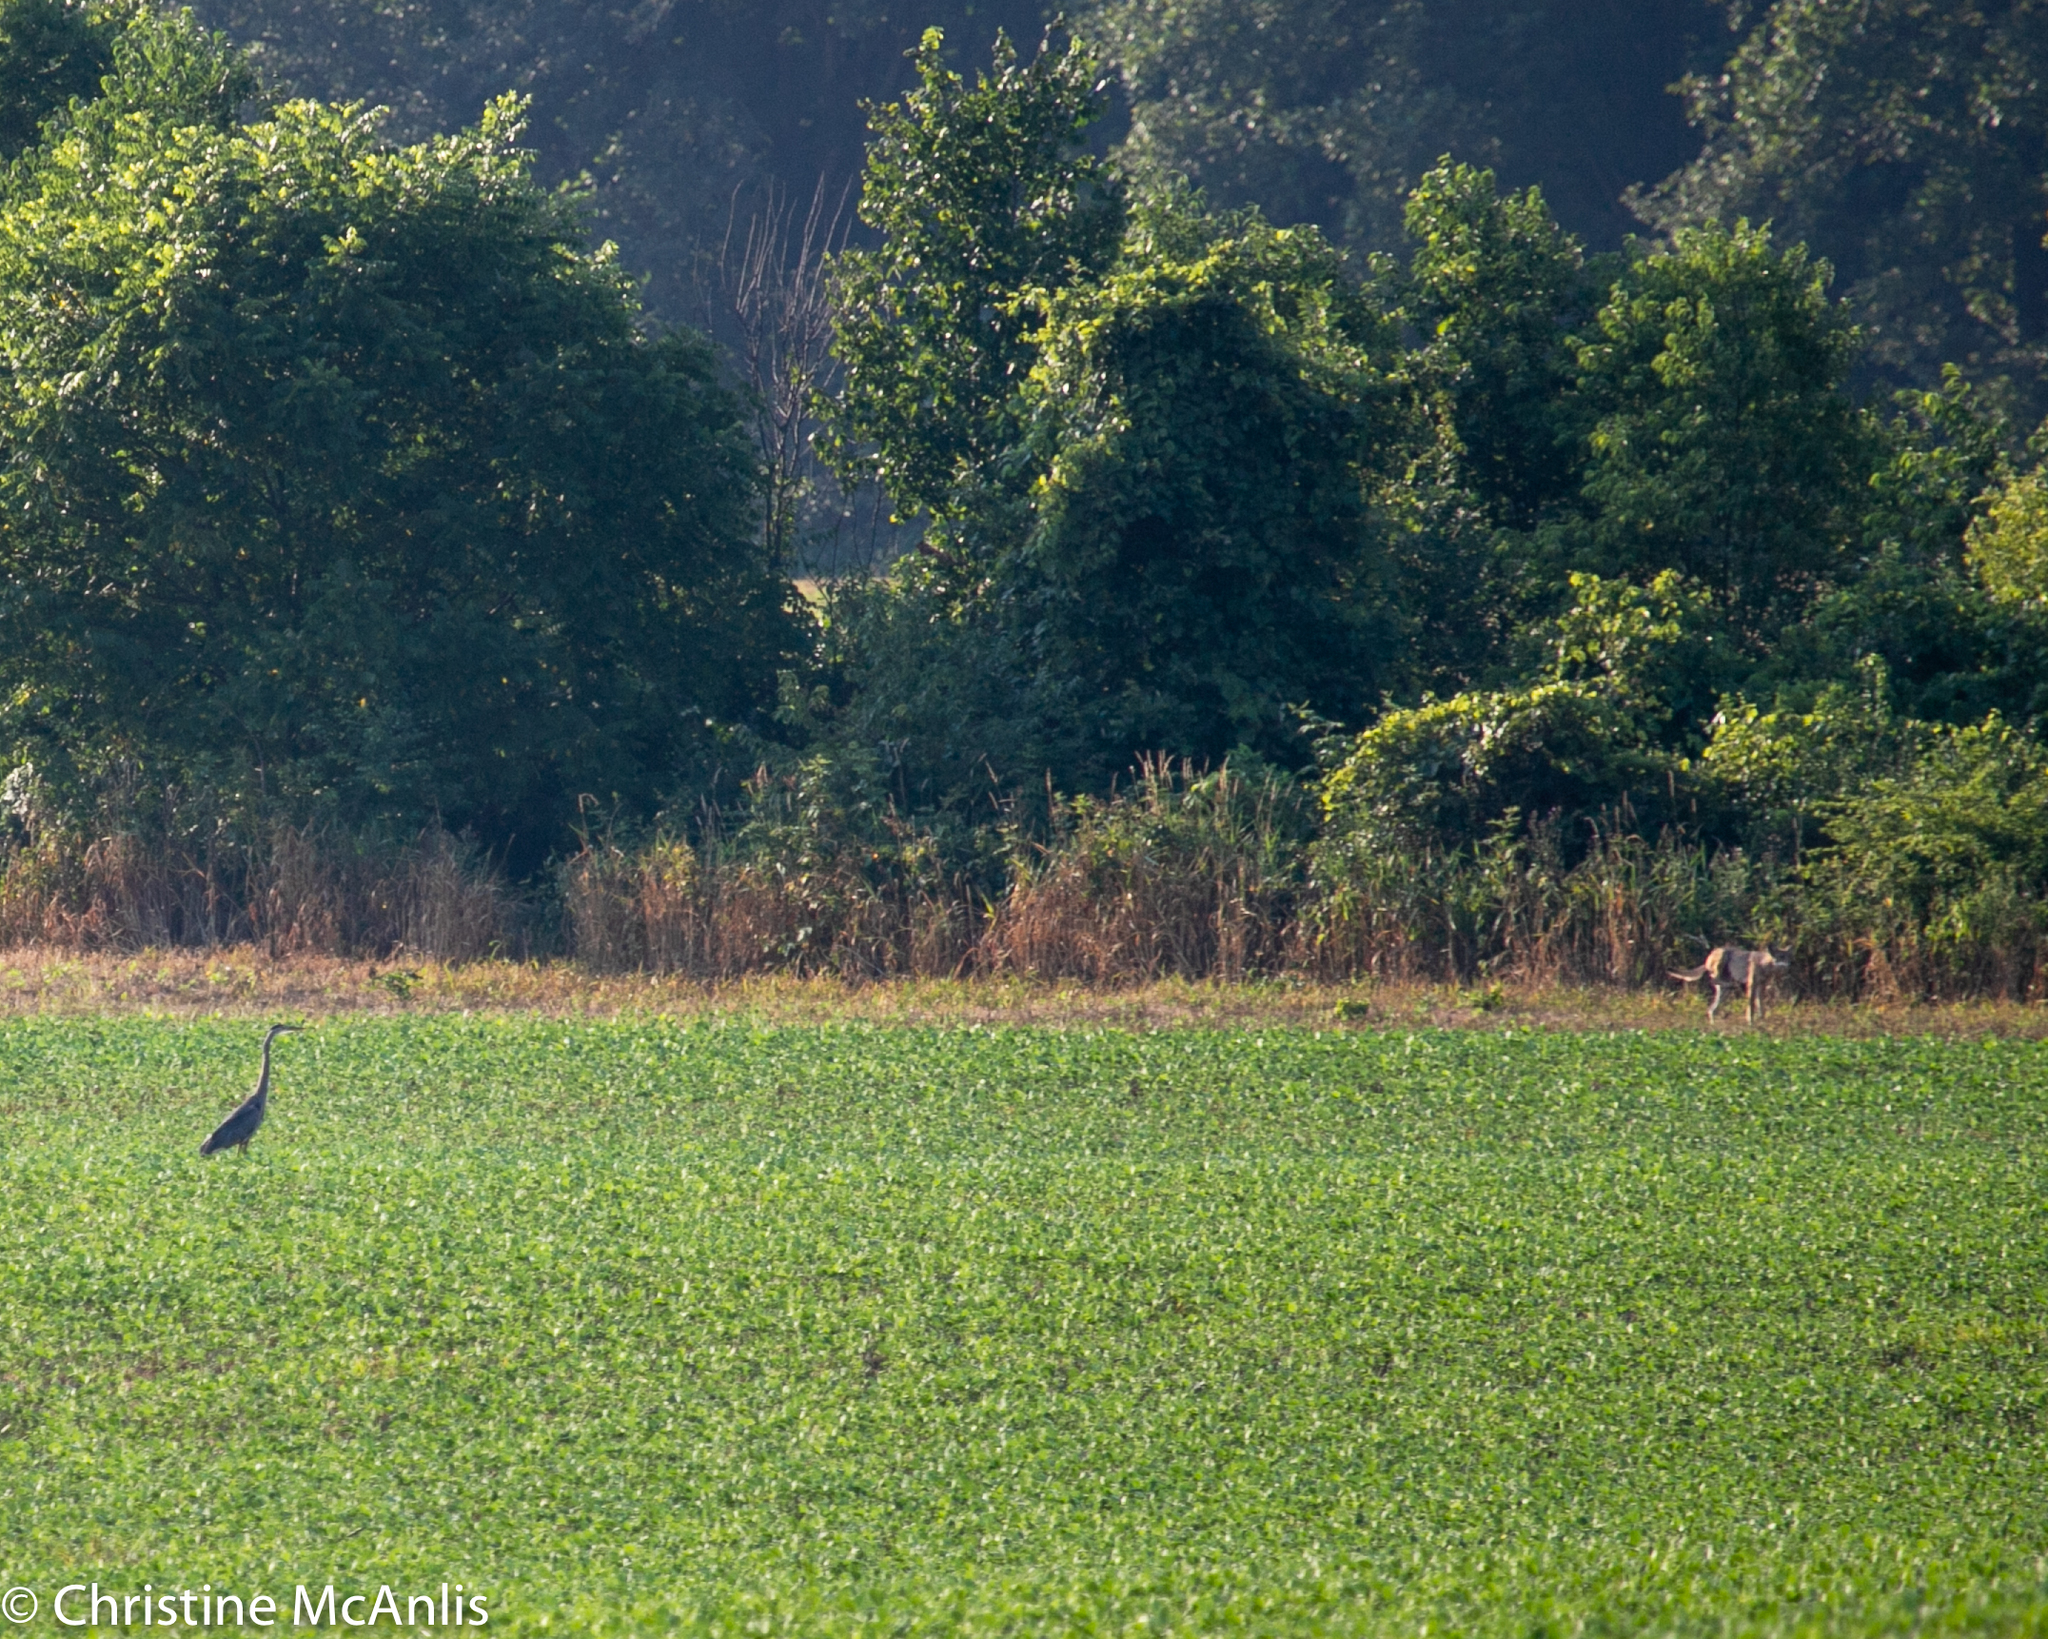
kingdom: Animalia
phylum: Chordata
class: Aves
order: Pelecaniformes
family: Ardeidae
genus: Ardea
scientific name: Ardea herodias
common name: Great blue heron
